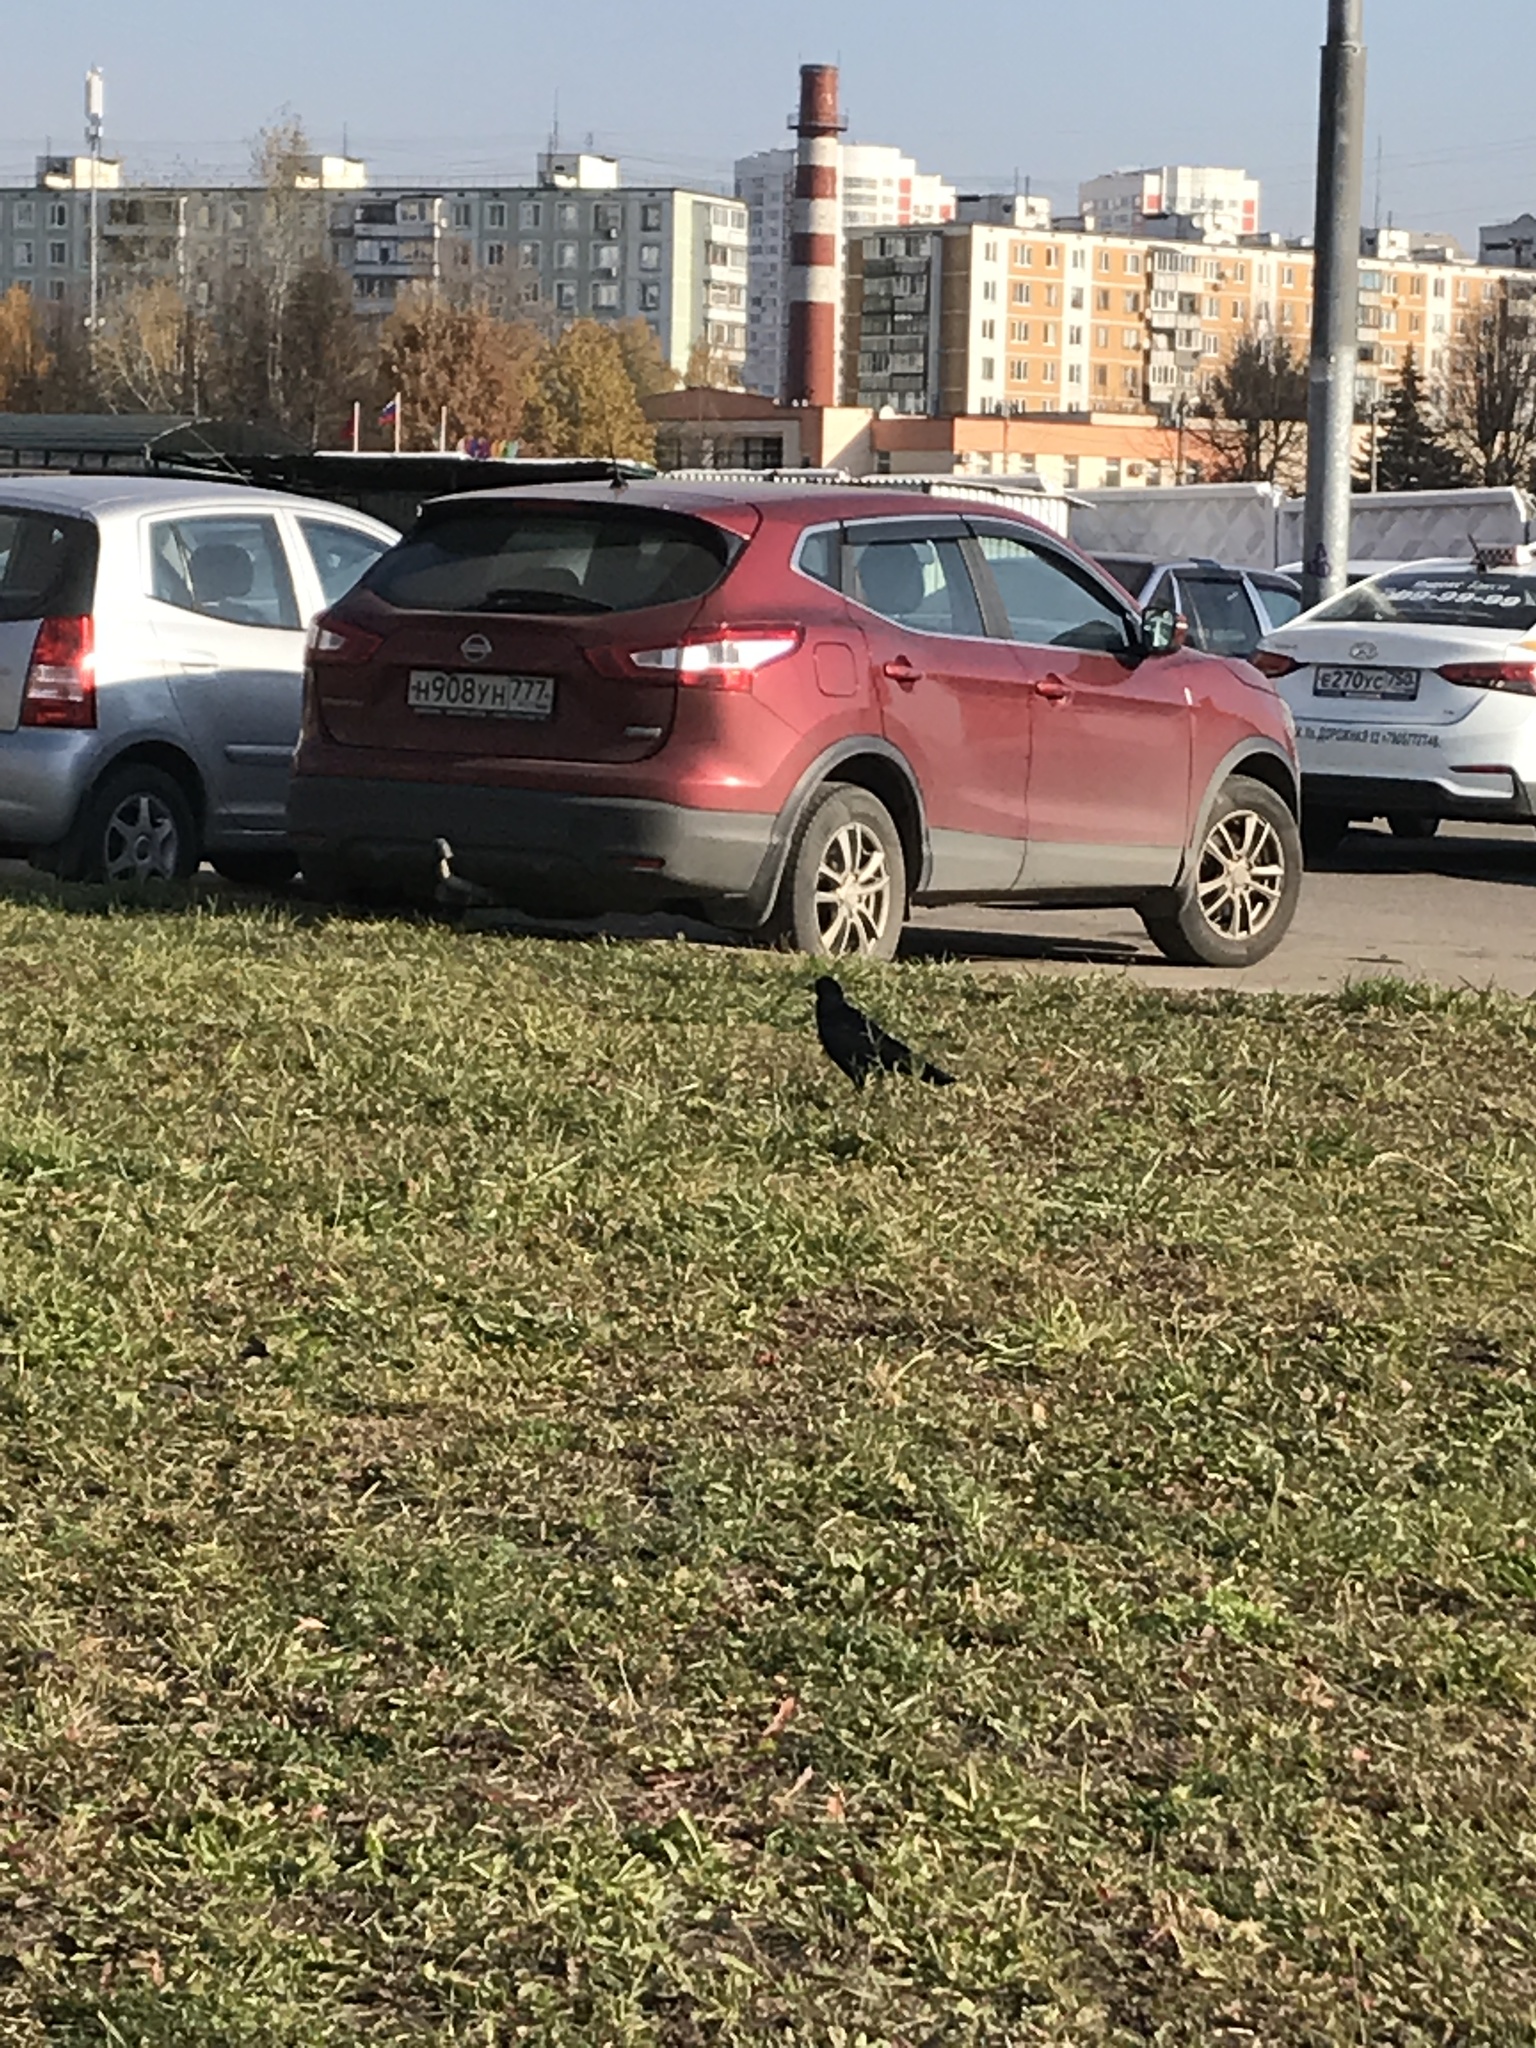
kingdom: Animalia
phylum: Chordata
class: Aves
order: Passeriformes
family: Corvidae
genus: Corvus
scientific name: Corvus frugilegus
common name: Rook
